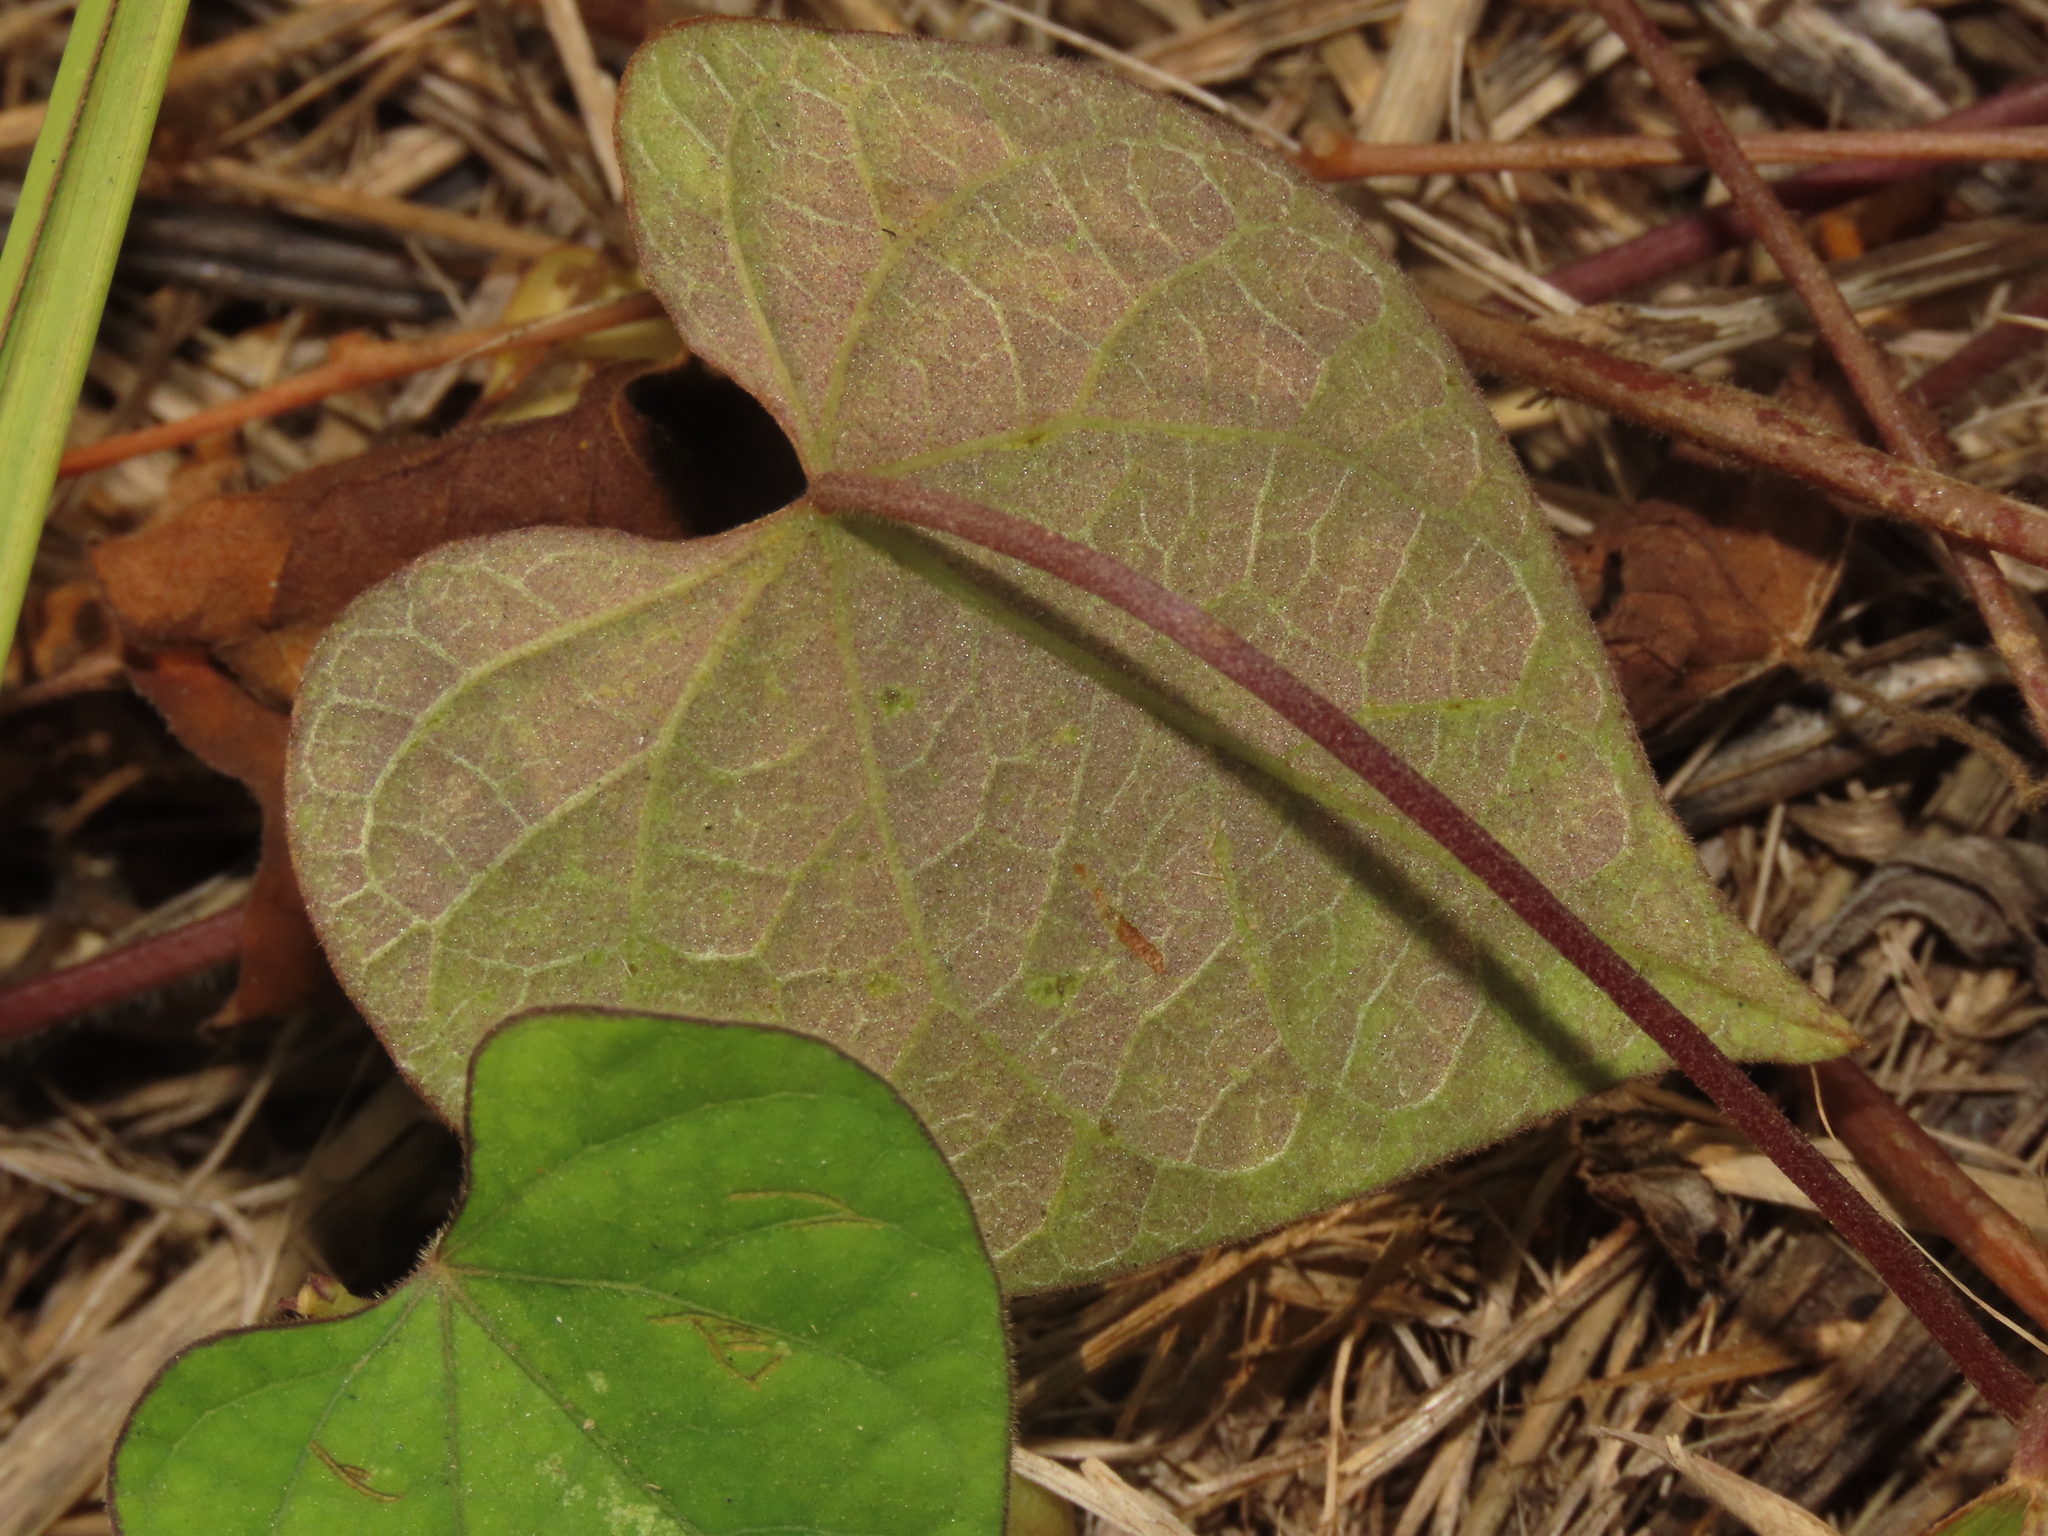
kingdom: Plantae
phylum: Tracheophyta
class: Magnoliopsida
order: Solanales
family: Convolvulaceae
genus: Ipomoea
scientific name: Ipomoea obscura
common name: Obscure morning-glory
